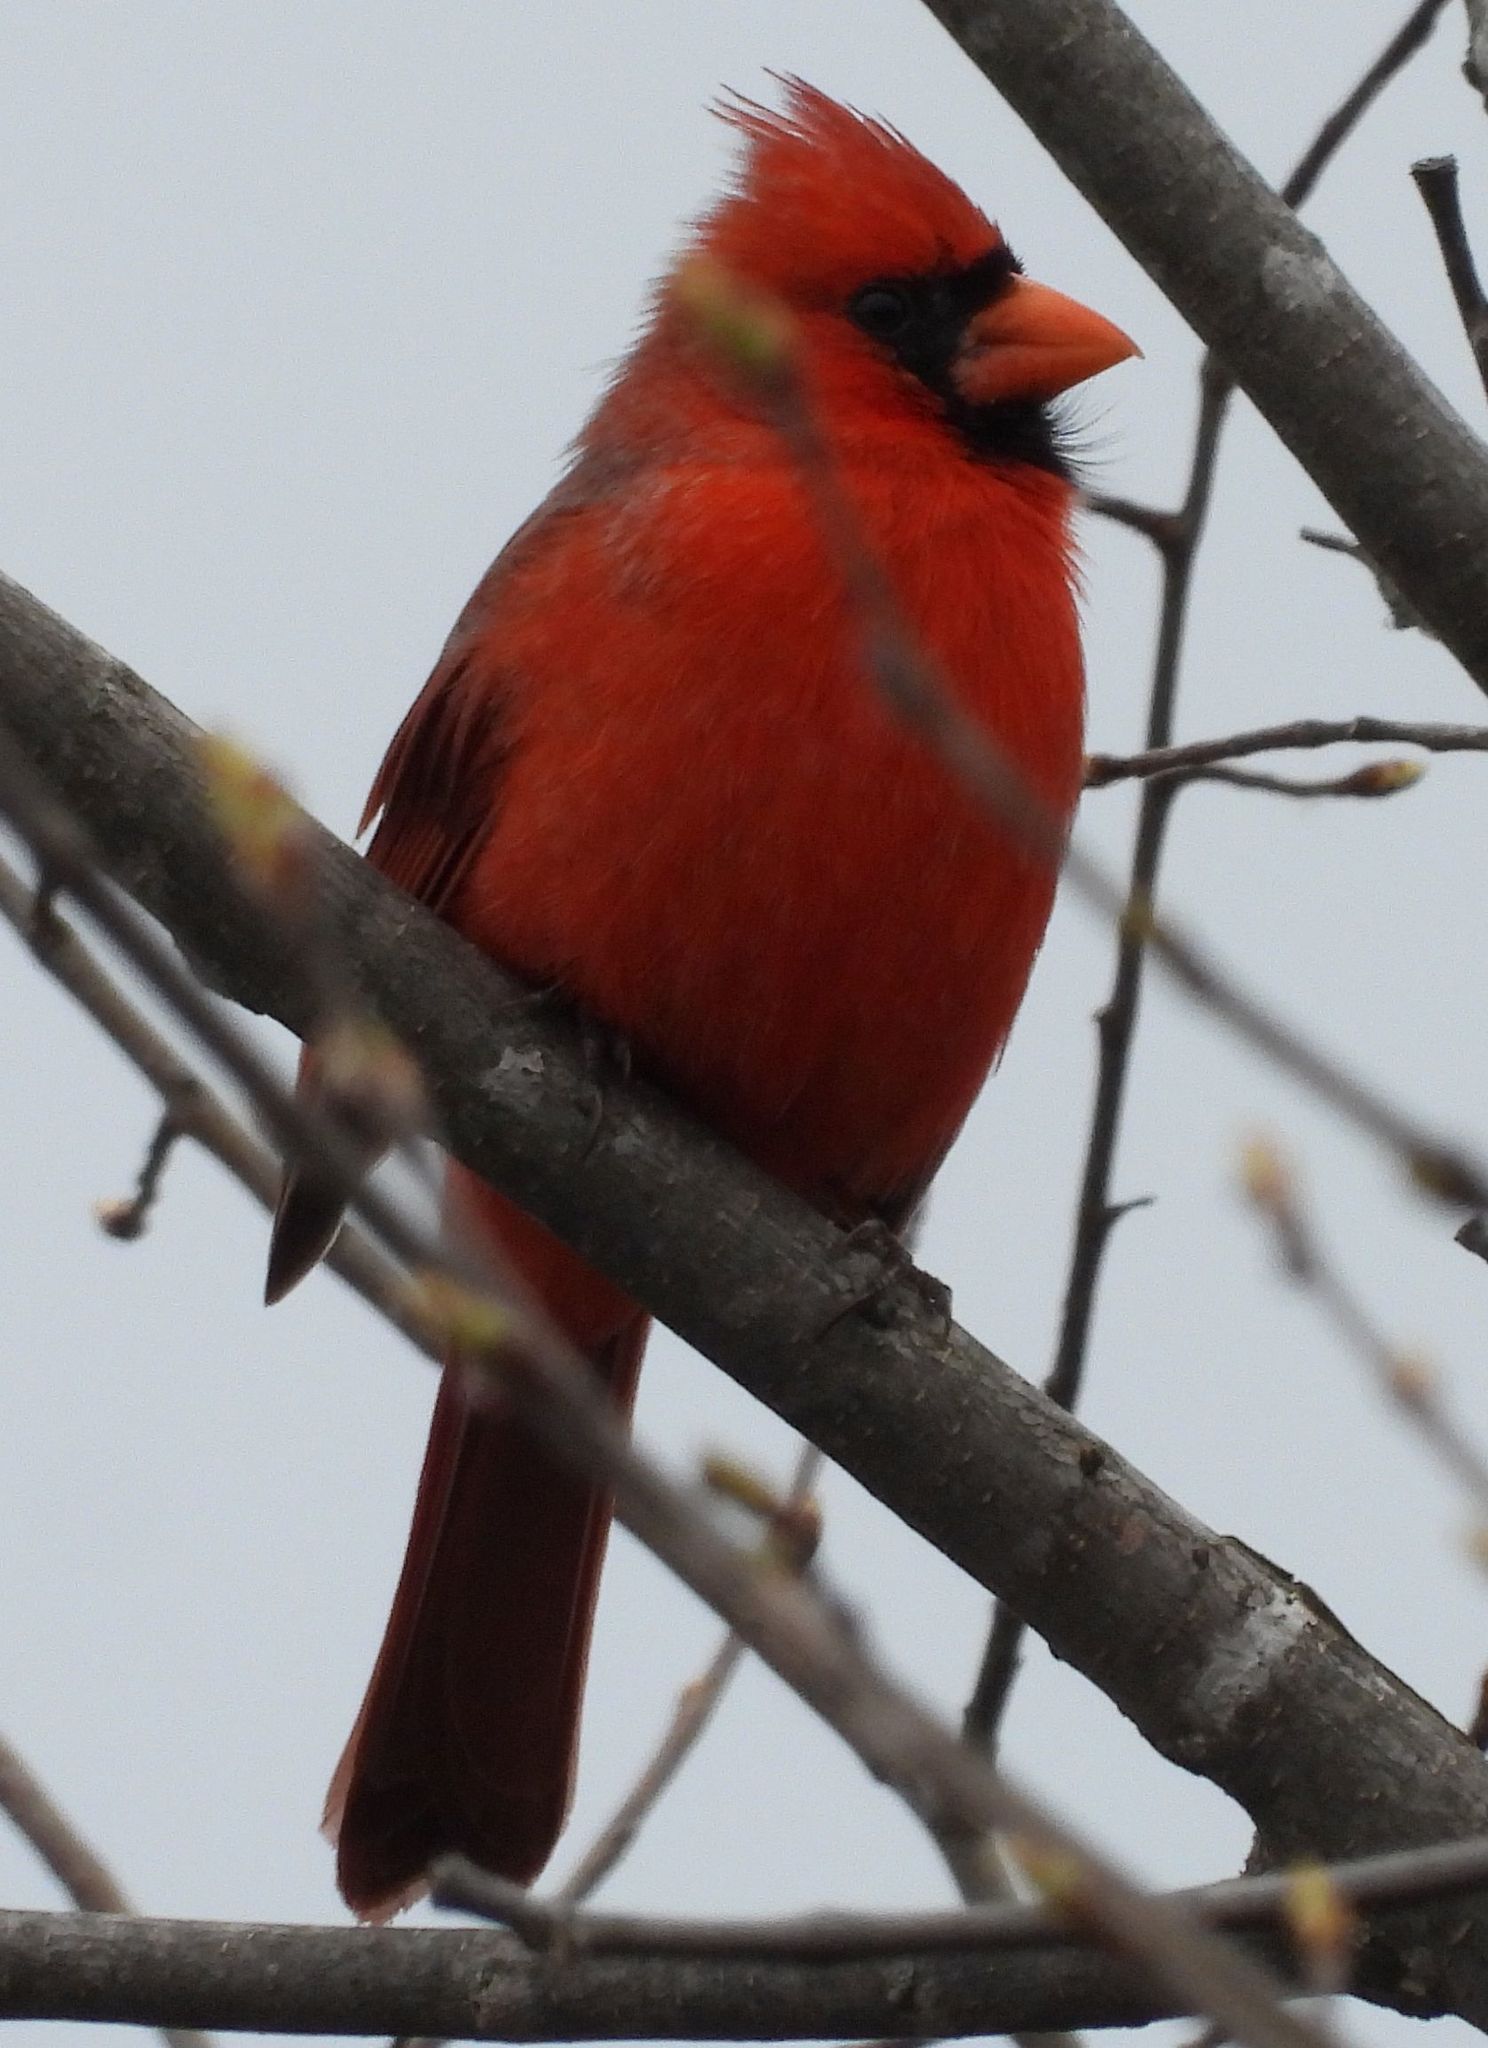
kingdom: Animalia
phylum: Chordata
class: Aves
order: Passeriformes
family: Cardinalidae
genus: Cardinalis
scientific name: Cardinalis cardinalis
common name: Northern cardinal
